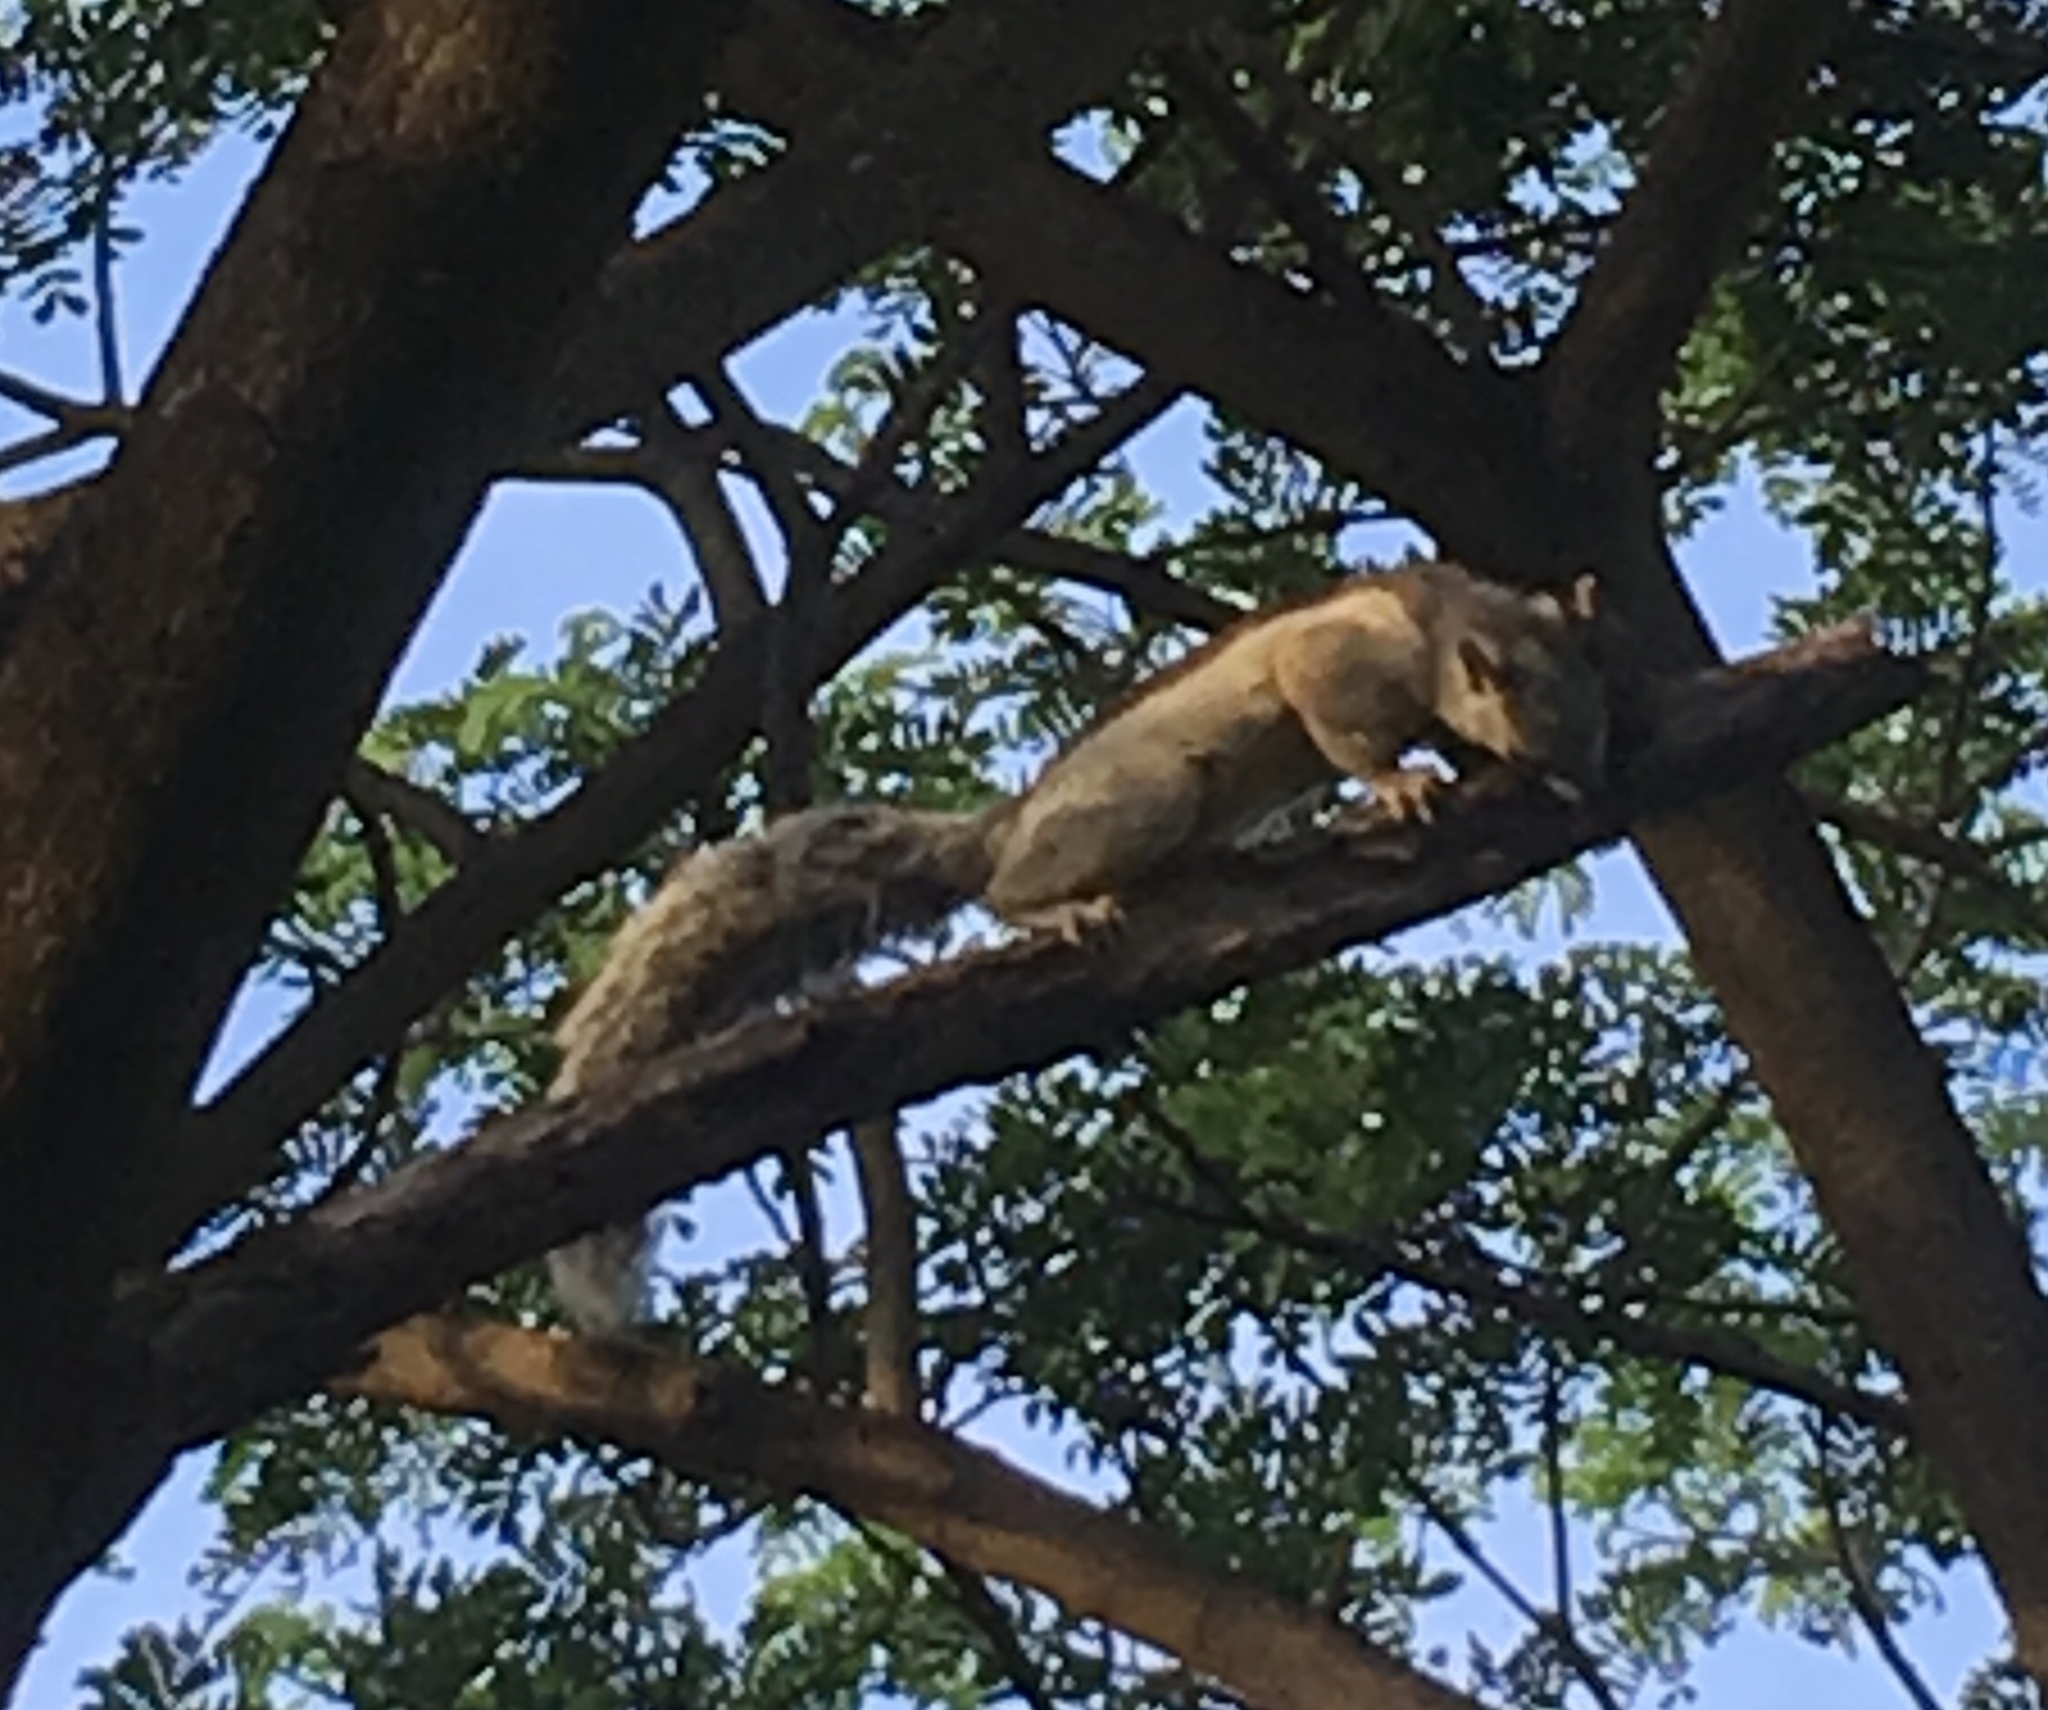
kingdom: Animalia
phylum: Chordata
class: Mammalia
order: Rodentia
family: Sciuridae
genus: Sciurus
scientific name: Sciurus variegatoides
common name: Variegated squirrel
